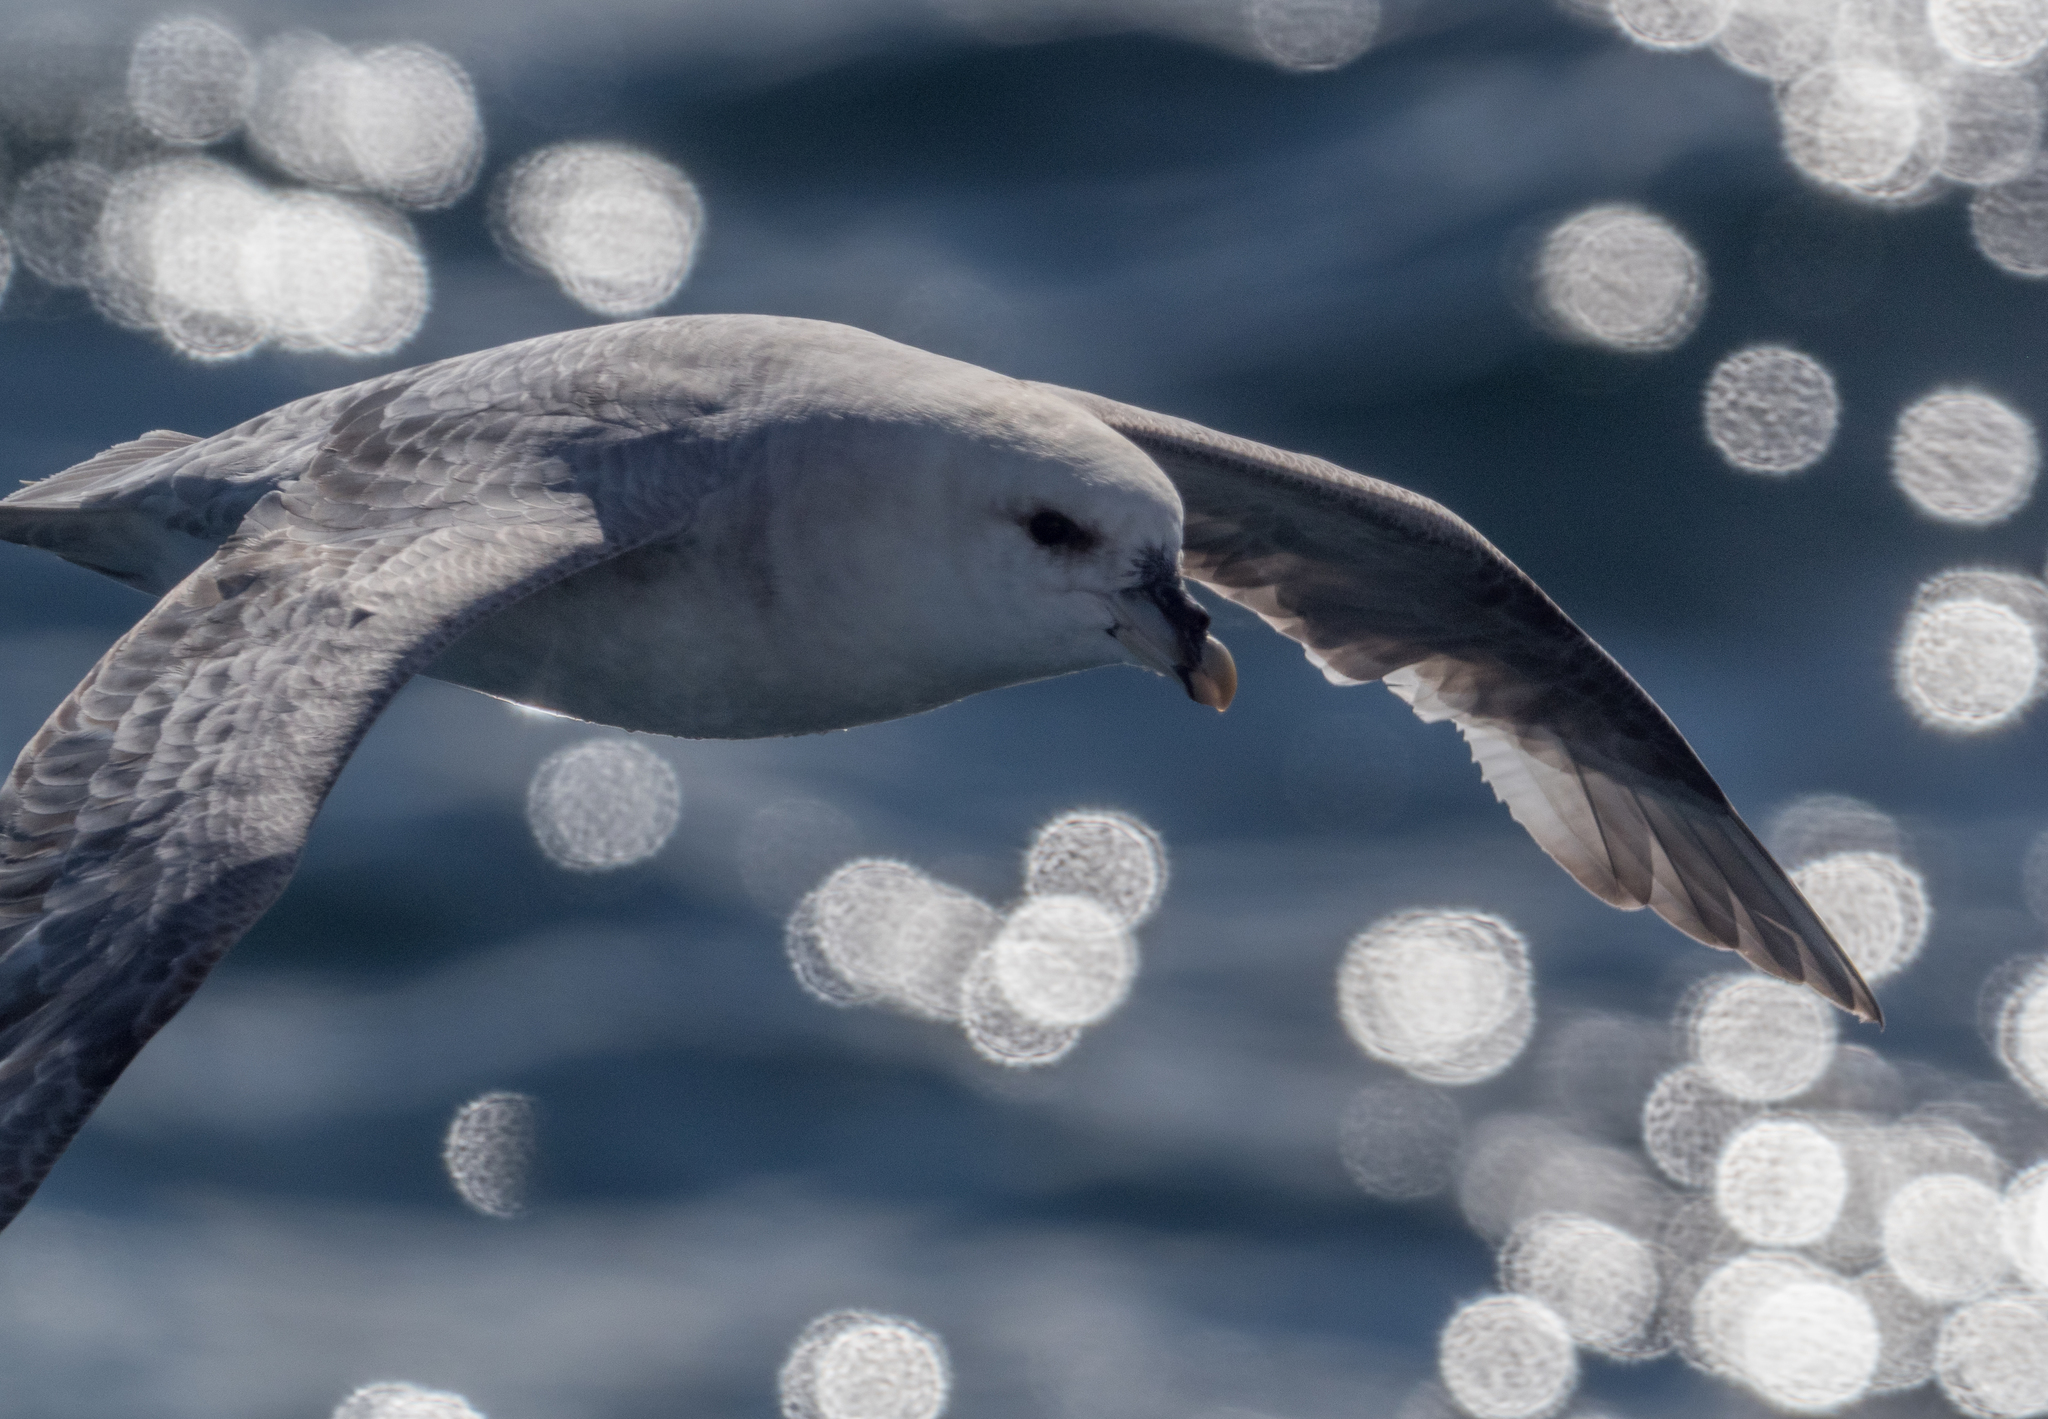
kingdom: Animalia
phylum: Chordata
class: Aves
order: Procellariiformes
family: Procellariidae
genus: Fulmarus
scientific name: Fulmarus glacialis
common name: Northern fulmar
